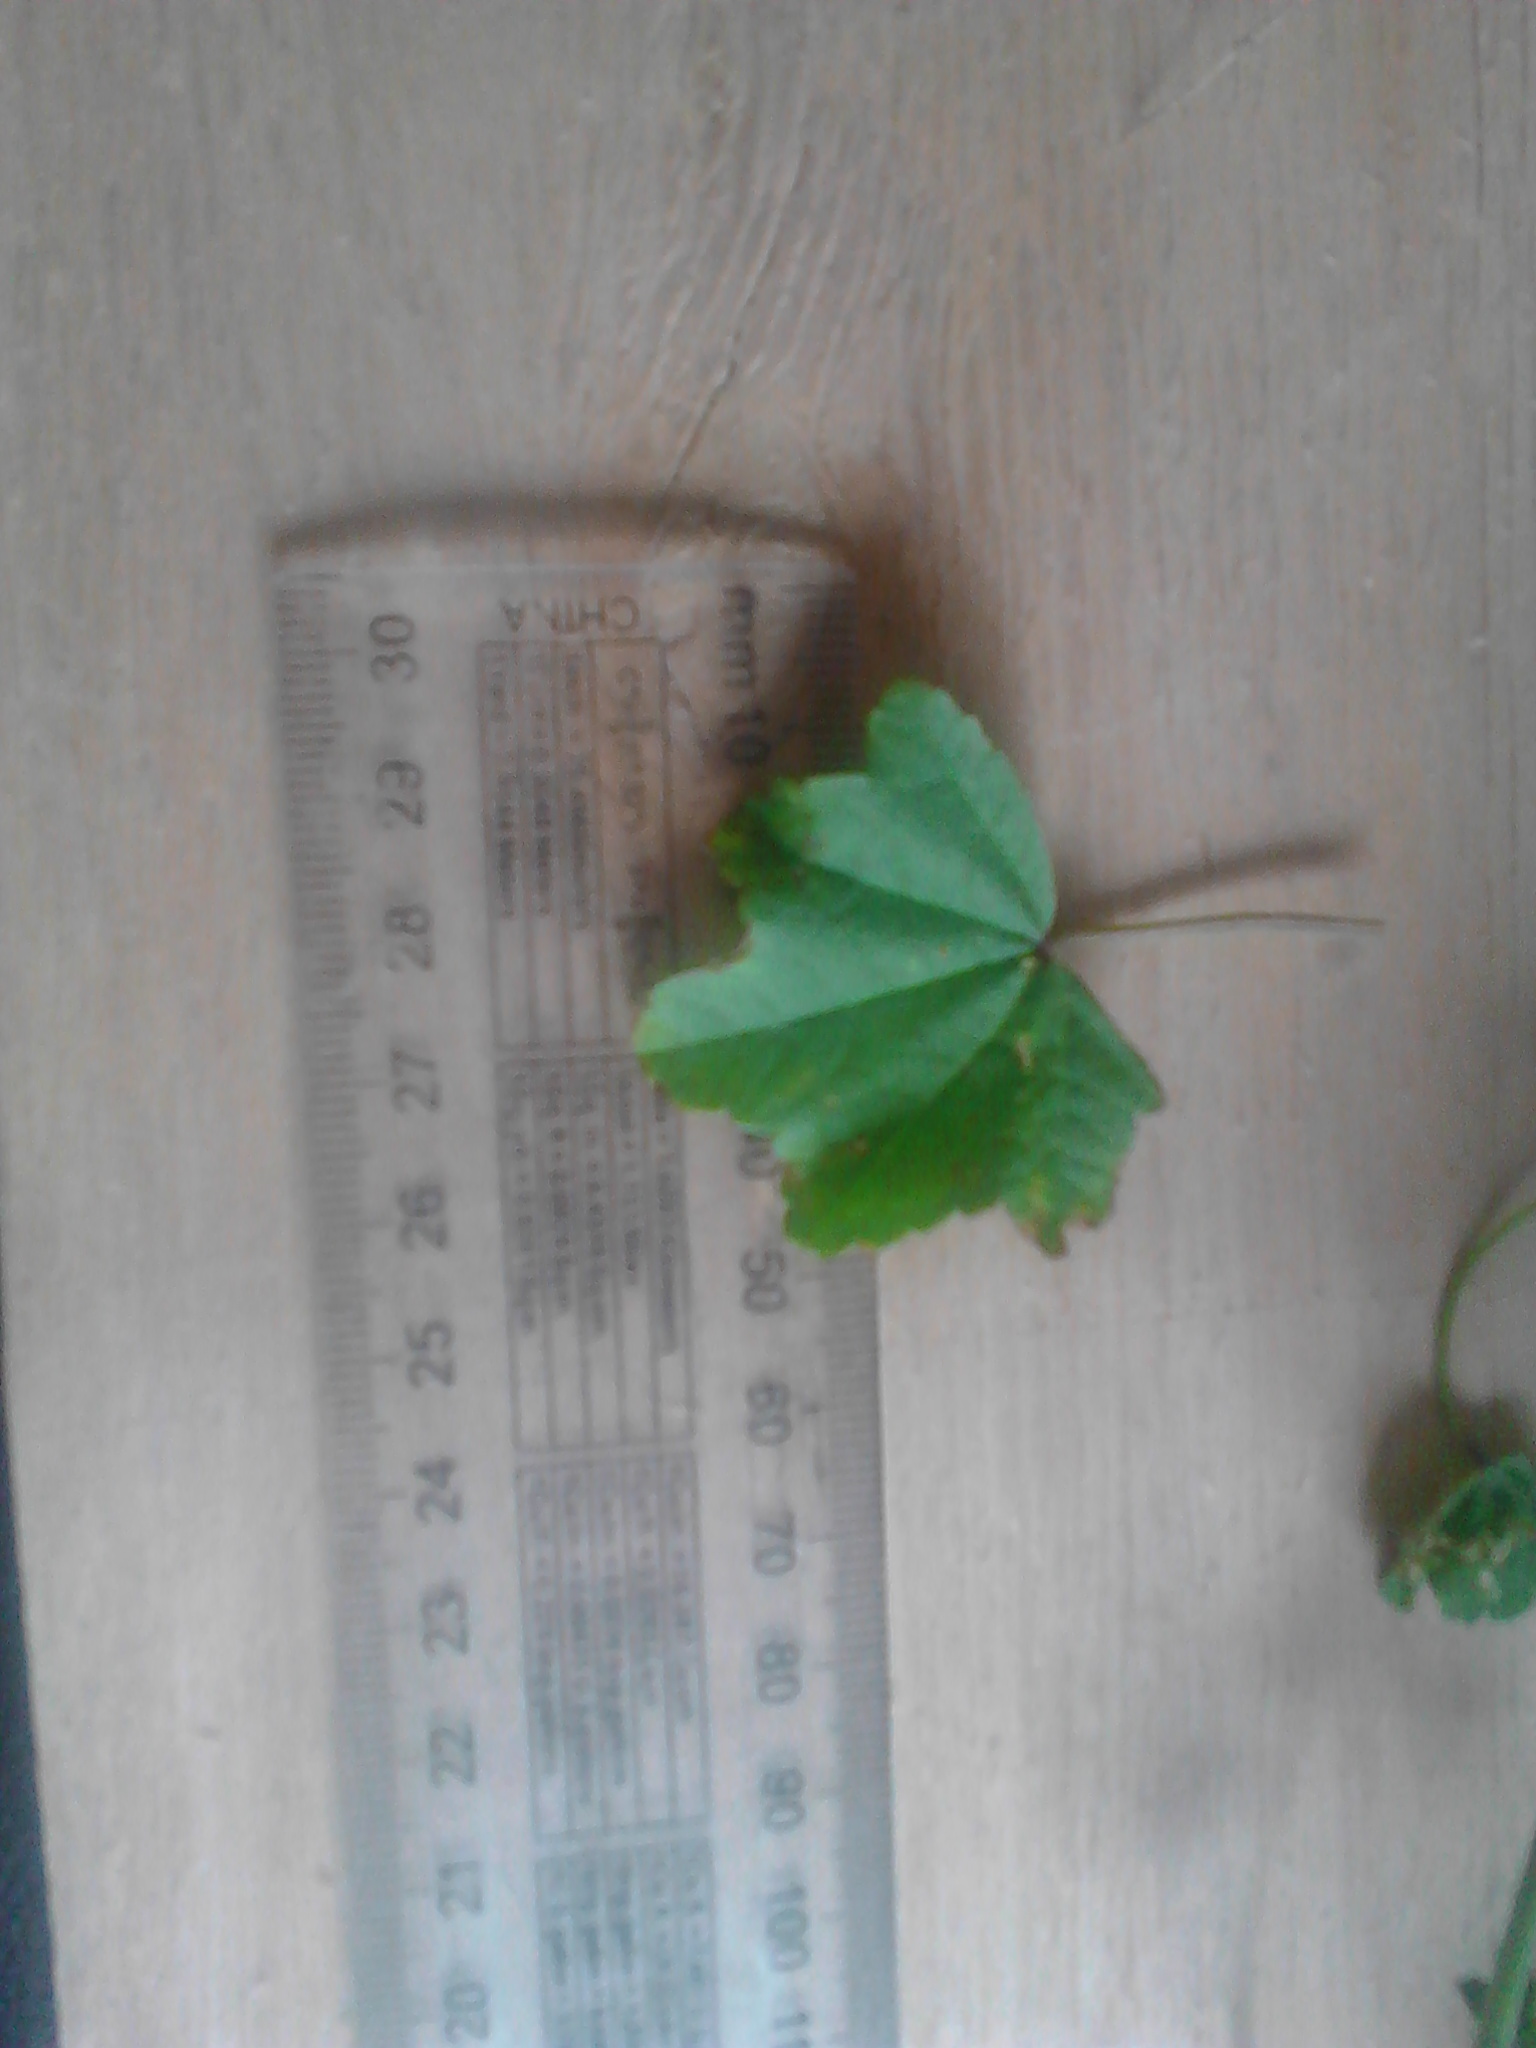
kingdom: Plantae
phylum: Tracheophyta
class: Magnoliopsida
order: Malvales
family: Malvaceae
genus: Malva
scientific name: Malva neglecta
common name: Common mallow
